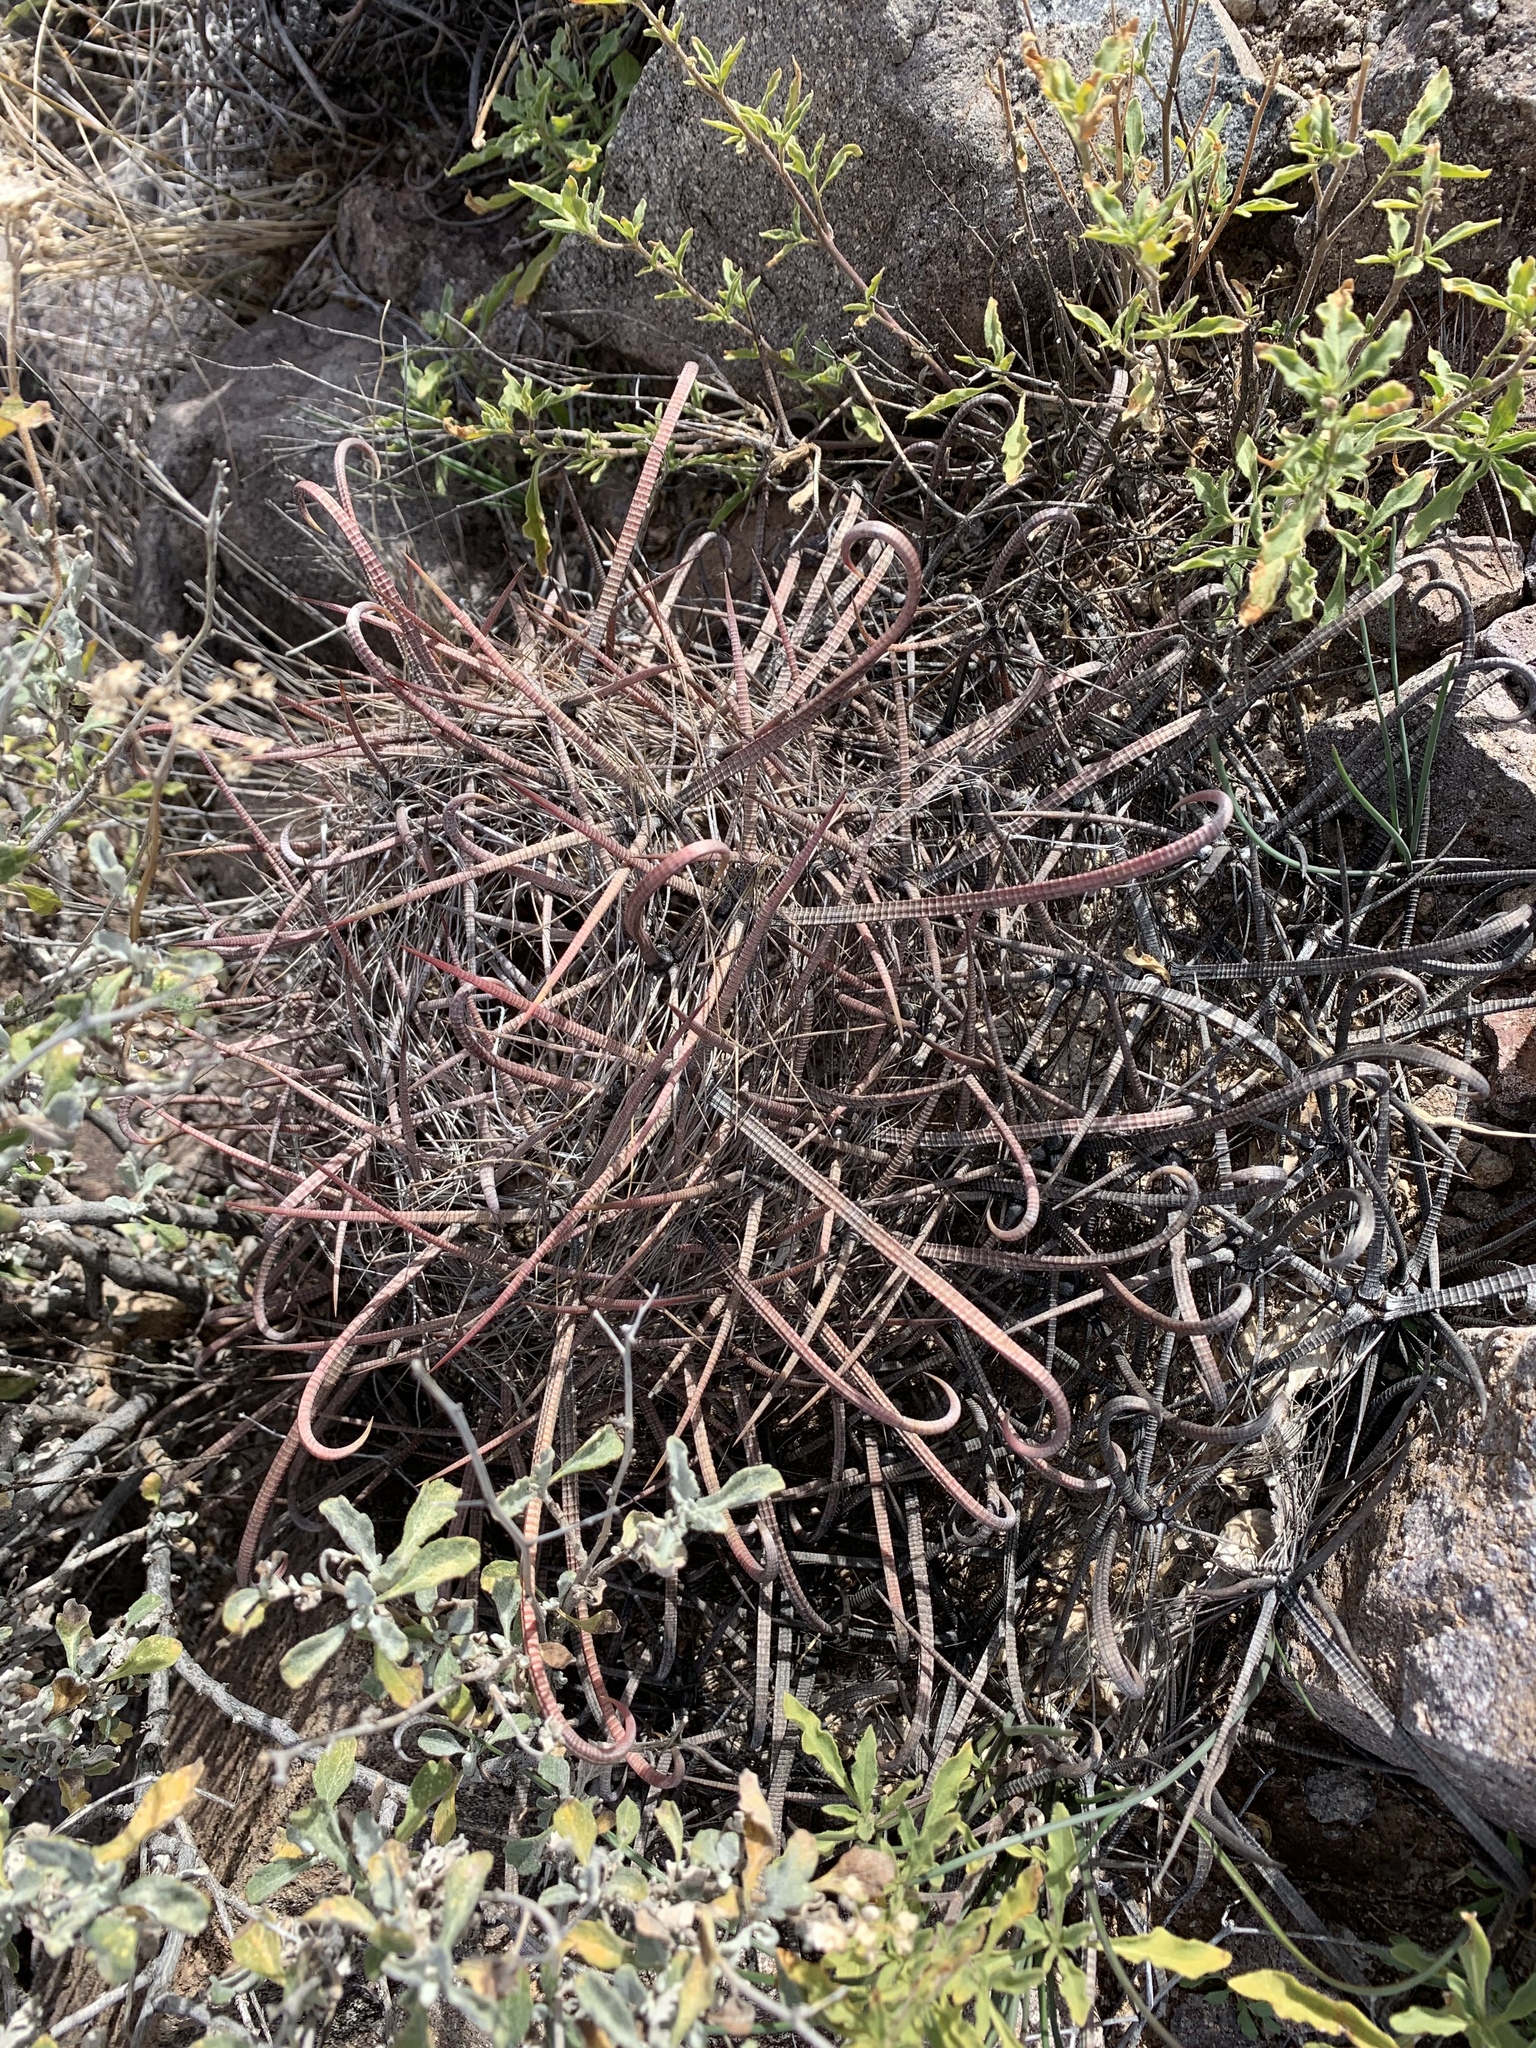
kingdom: Plantae
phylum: Tracheophyta
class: Magnoliopsida
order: Caryophyllales
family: Cactaceae
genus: Ferocactus
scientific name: Ferocactus wislizeni
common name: Candy barrel cactus
